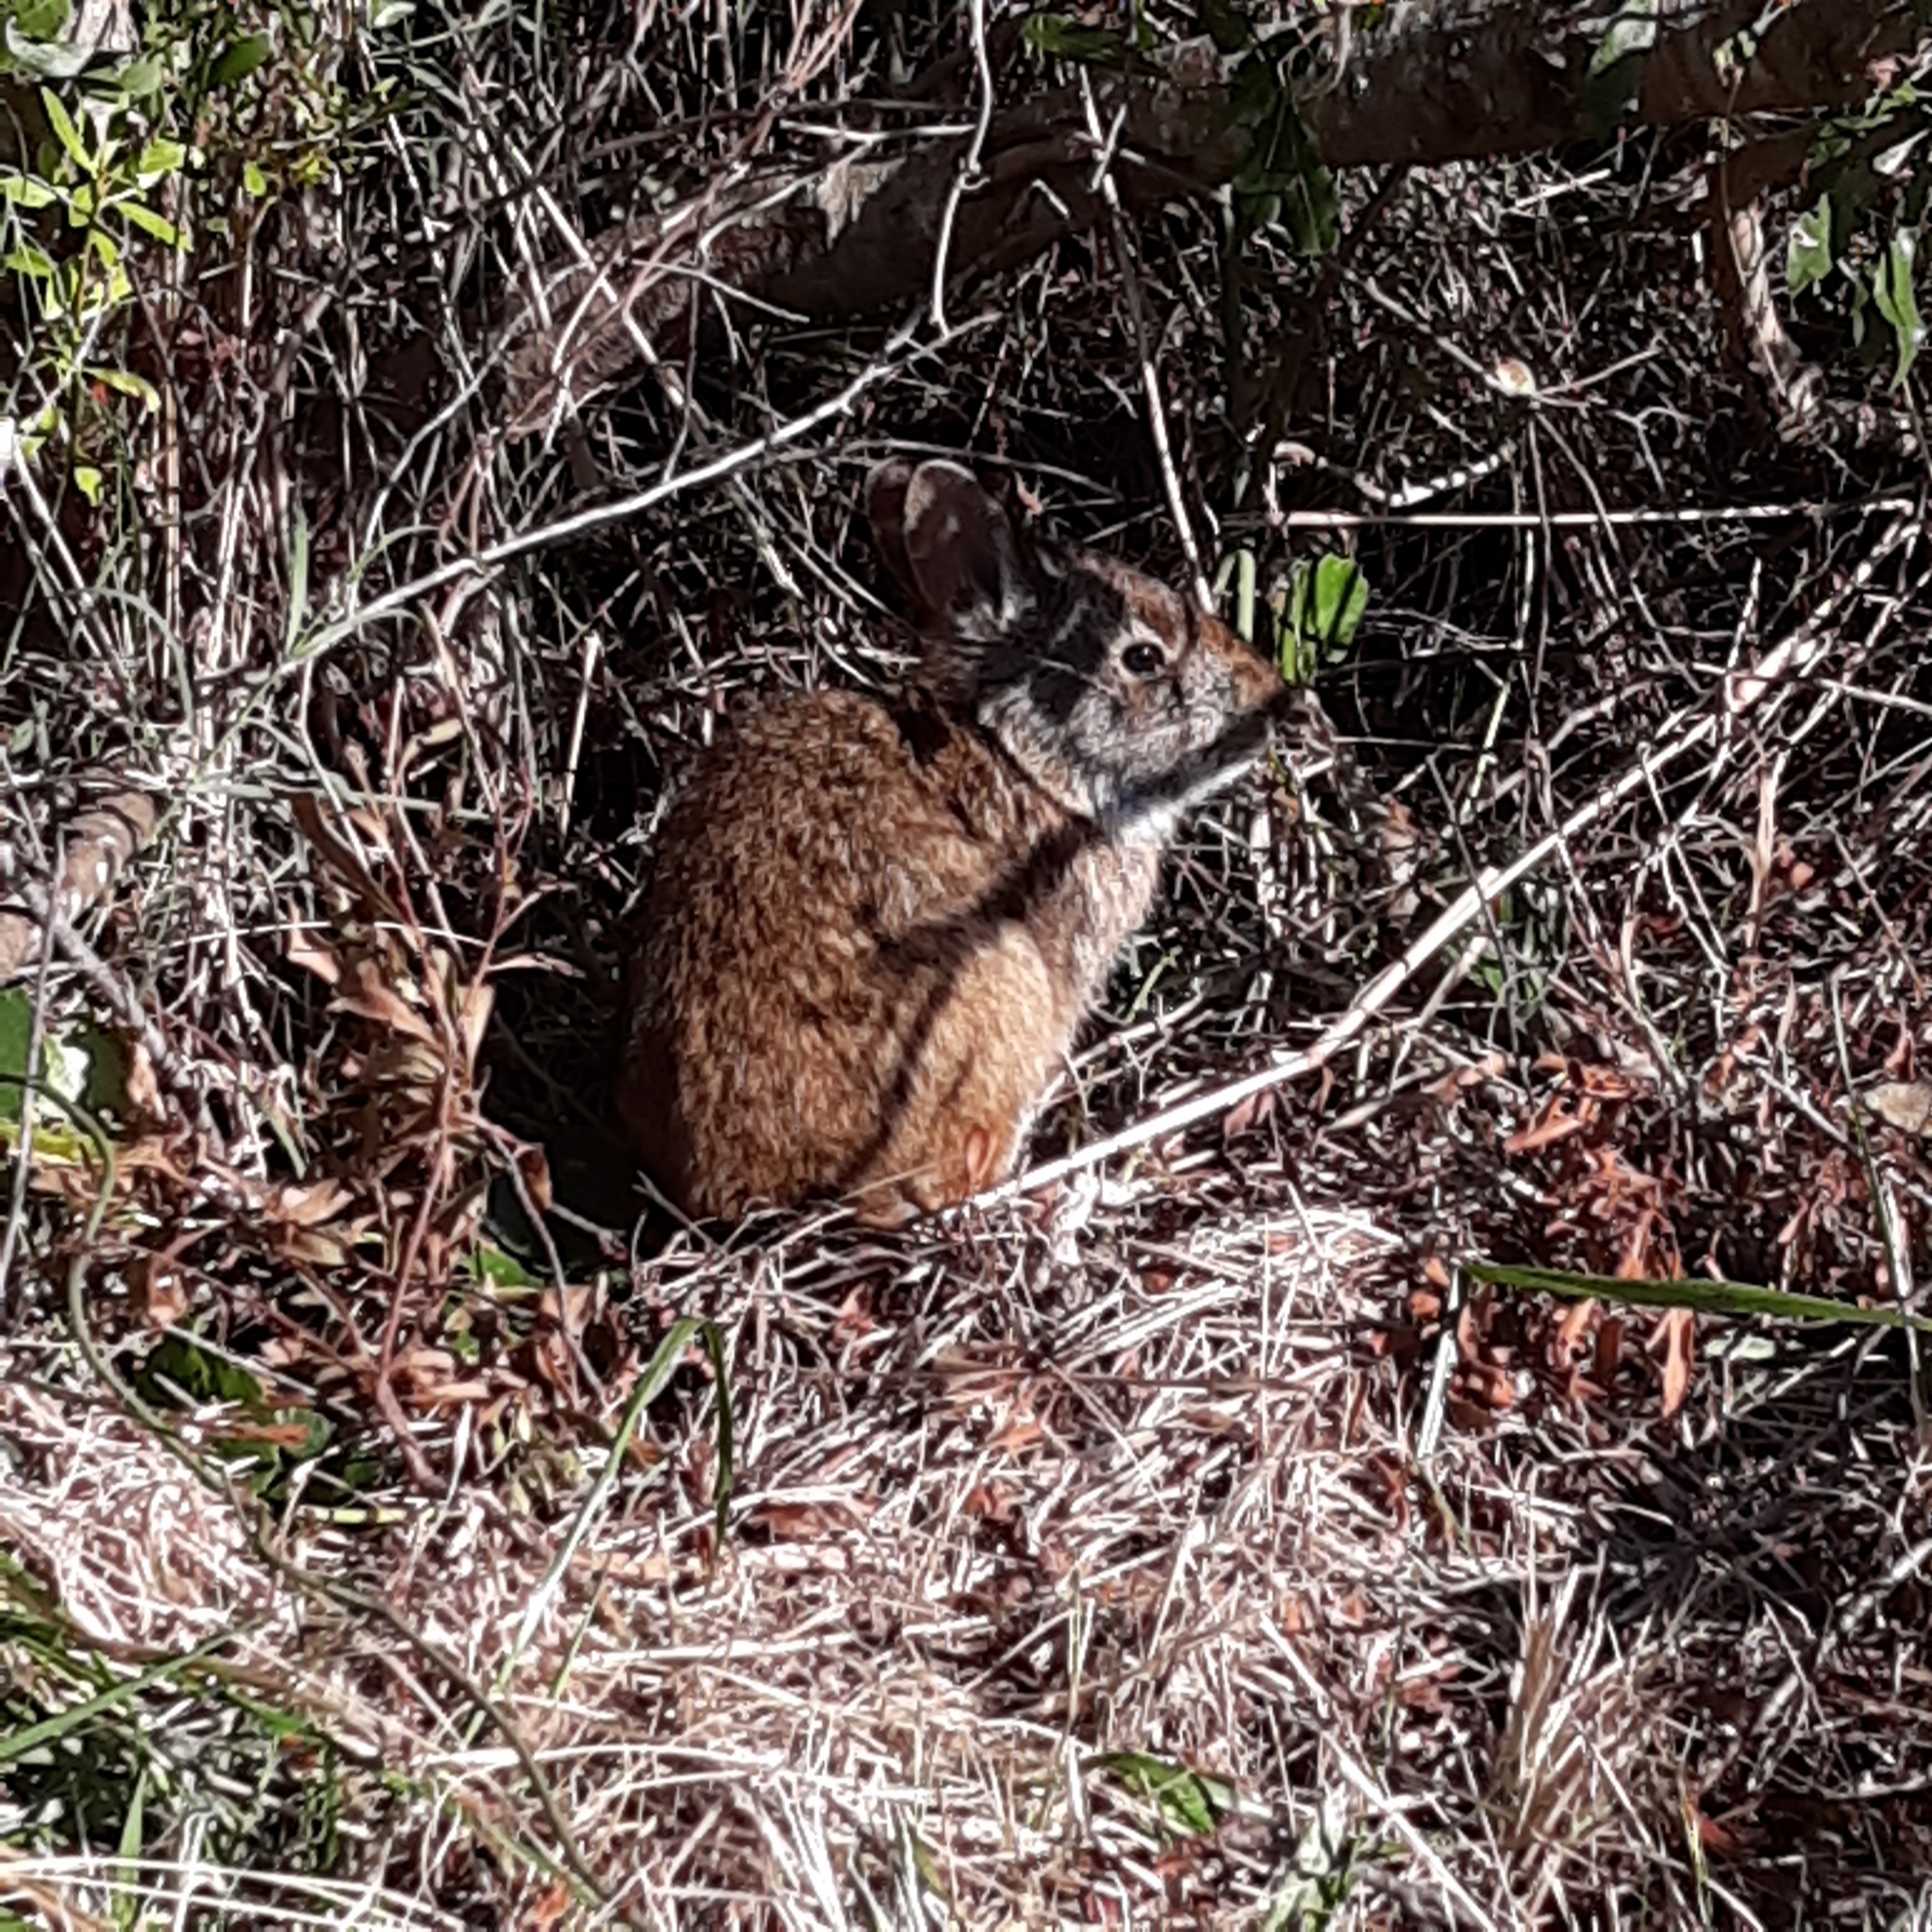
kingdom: Animalia
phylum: Chordata
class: Mammalia
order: Lagomorpha
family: Leporidae
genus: Sylvilagus
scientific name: Sylvilagus palustris
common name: Marsh rabbit
